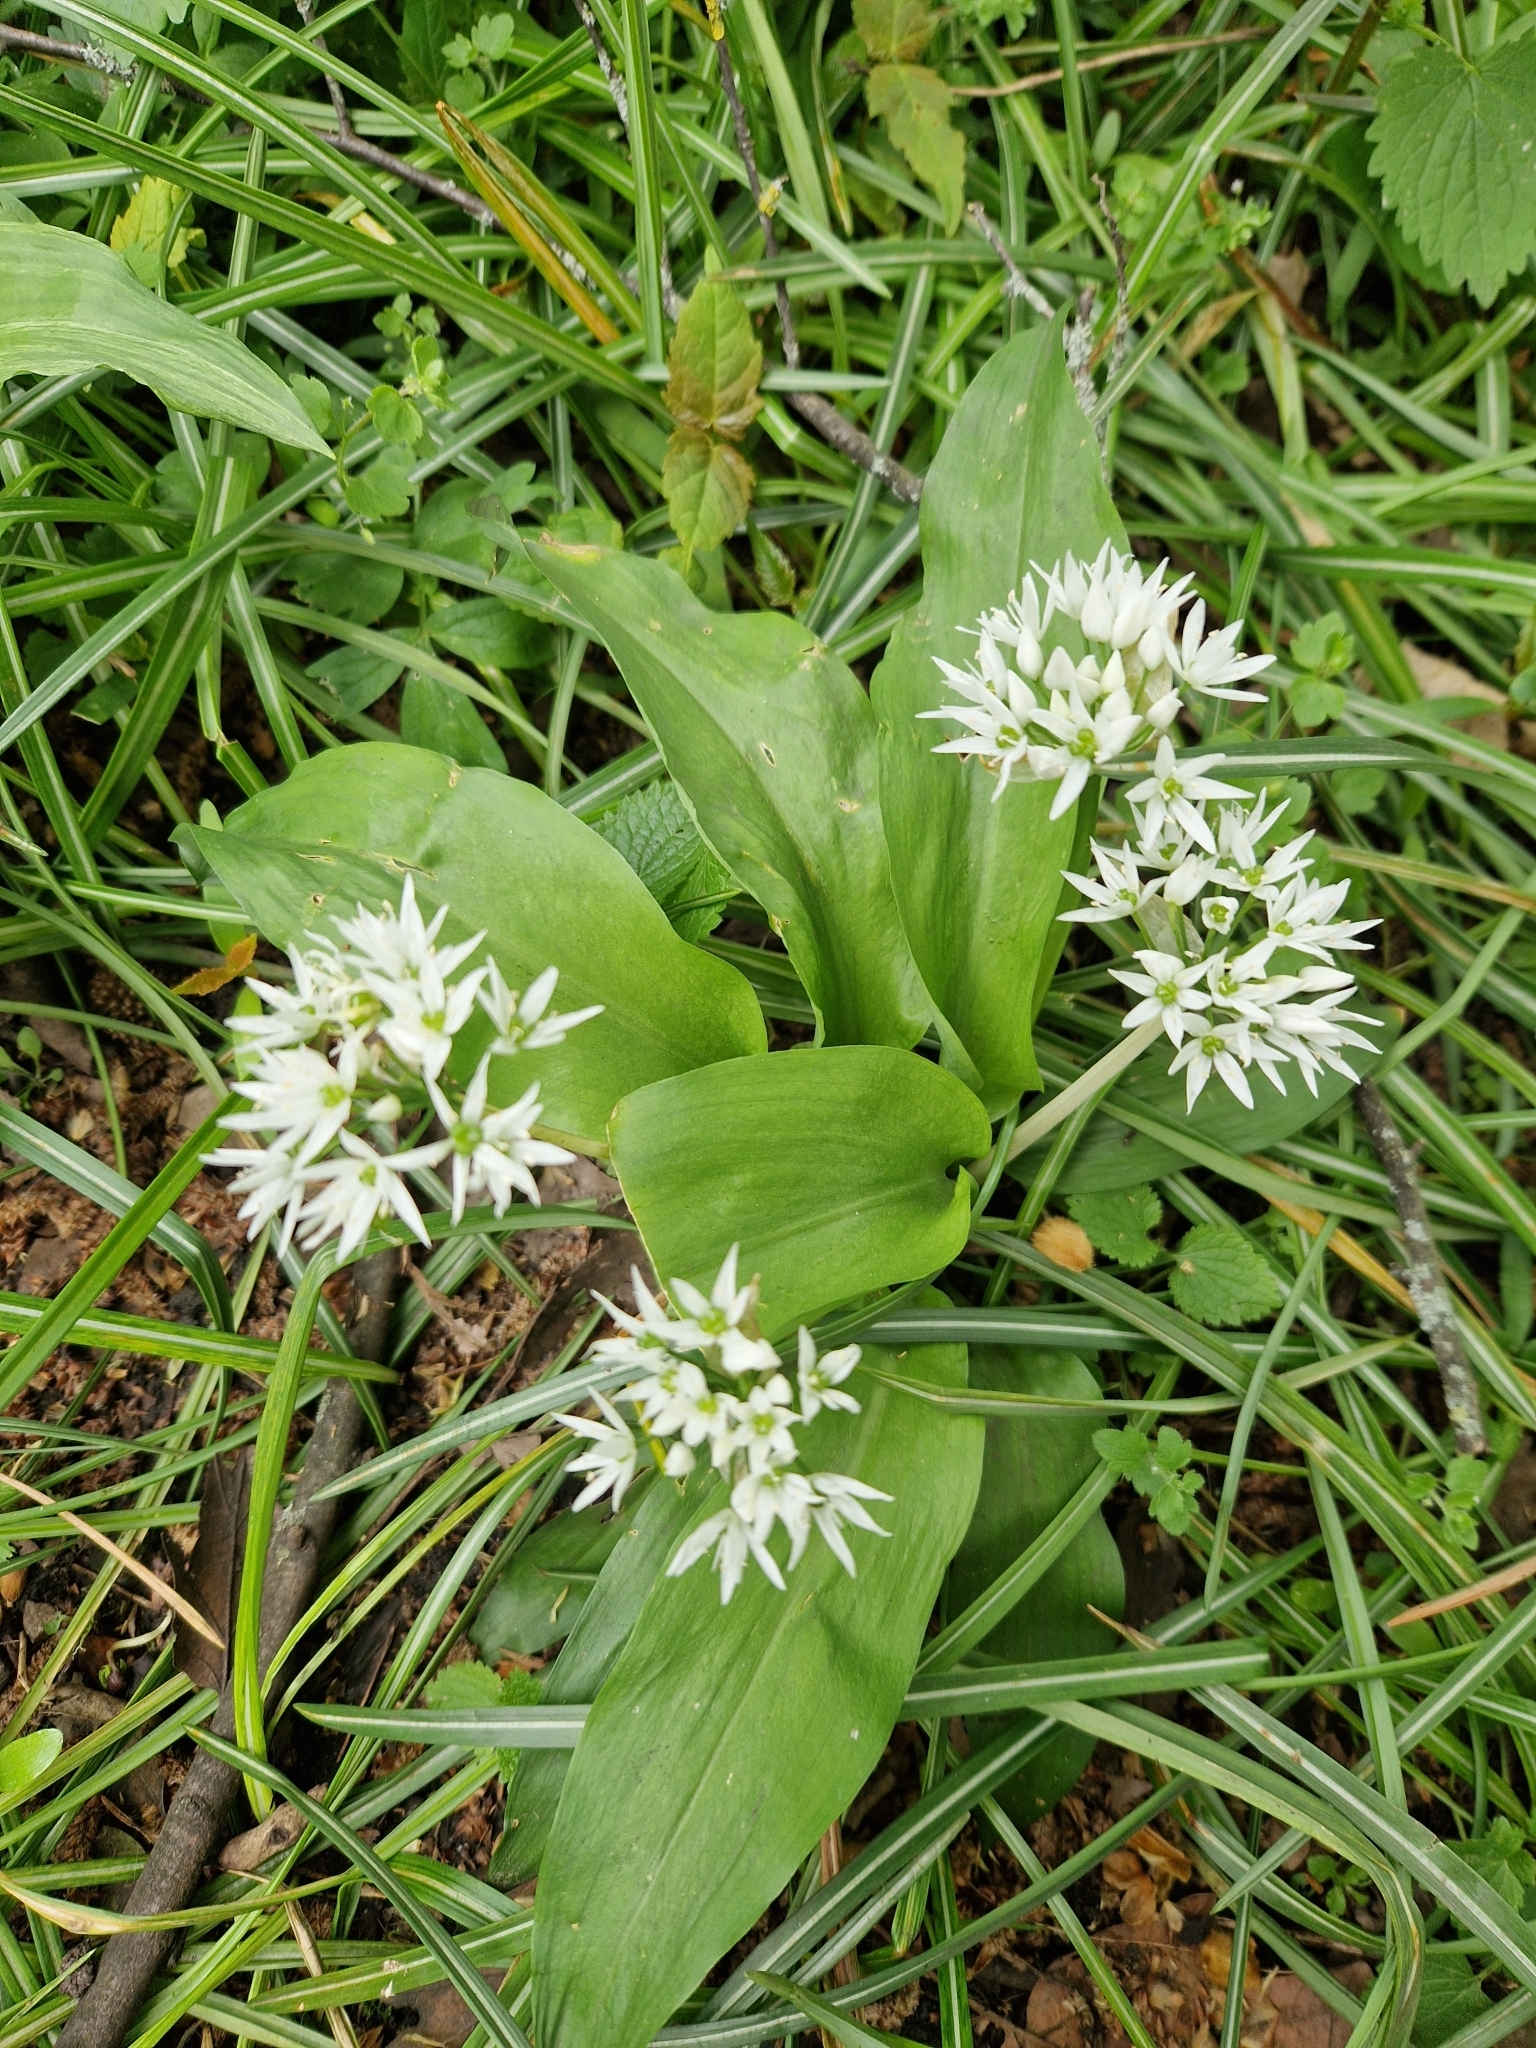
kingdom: Plantae
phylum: Tracheophyta
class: Liliopsida
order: Asparagales
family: Amaryllidaceae
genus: Allium
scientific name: Allium ursinum
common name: Ramsons
